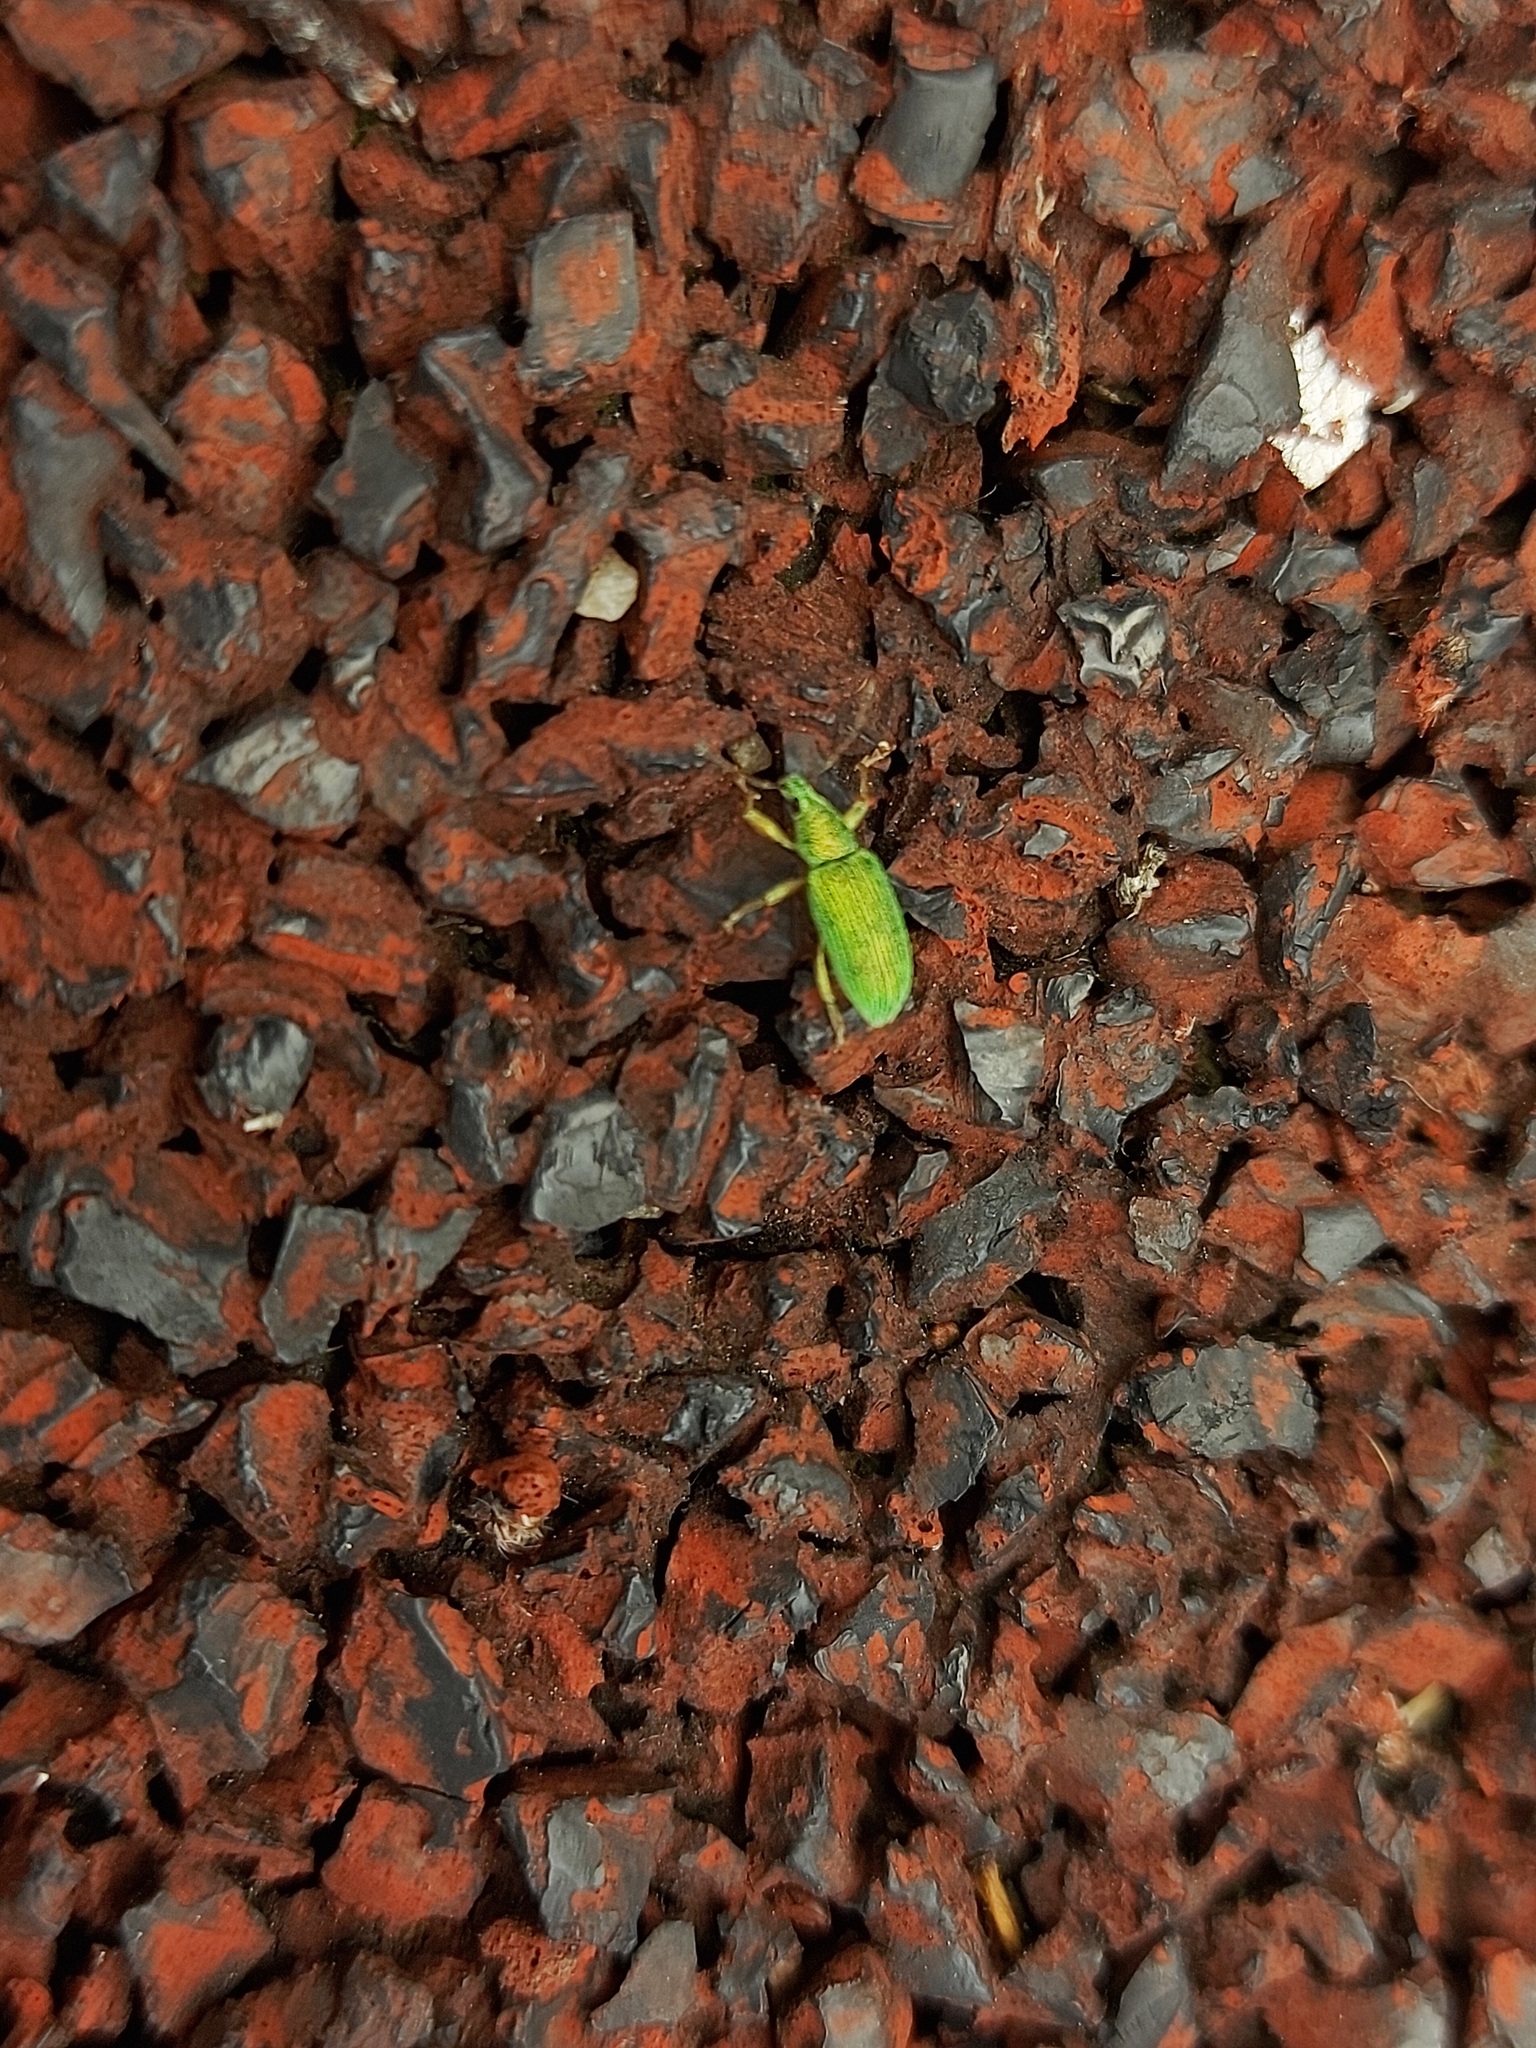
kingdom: Animalia
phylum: Arthropoda
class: Insecta
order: Coleoptera
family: Curculionidae
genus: Polydrusus
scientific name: Polydrusus formosus
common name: Weevil
